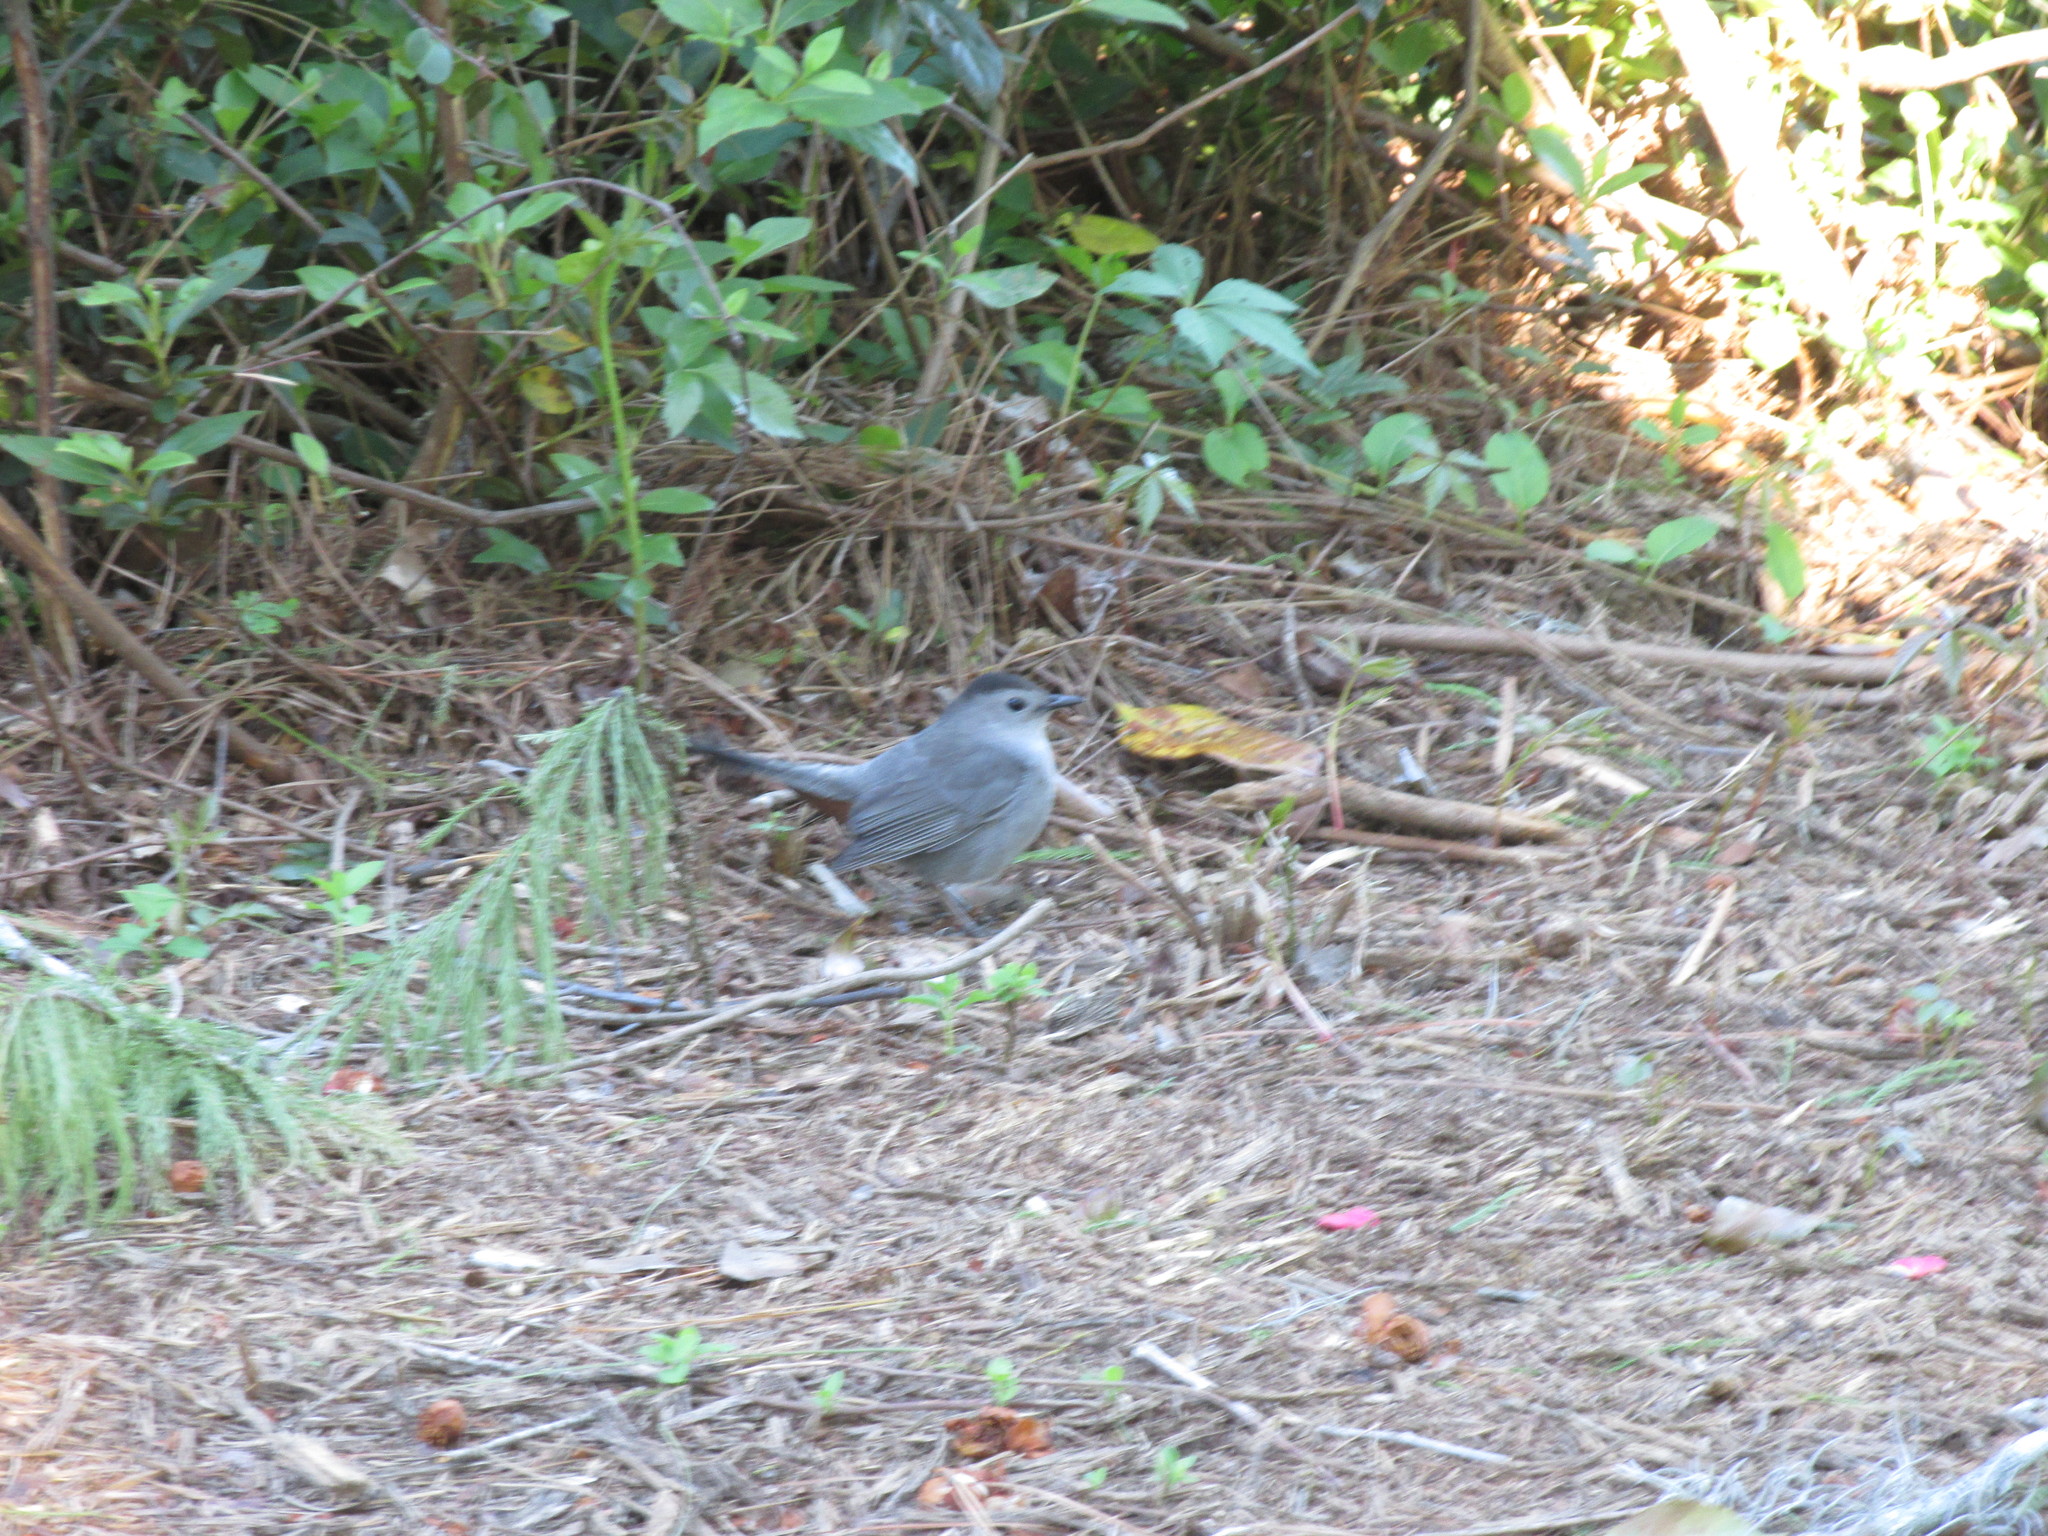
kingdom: Animalia
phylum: Chordata
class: Aves
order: Passeriformes
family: Mimidae
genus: Dumetella
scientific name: Dumetella carolinensis
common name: Gray catbird
